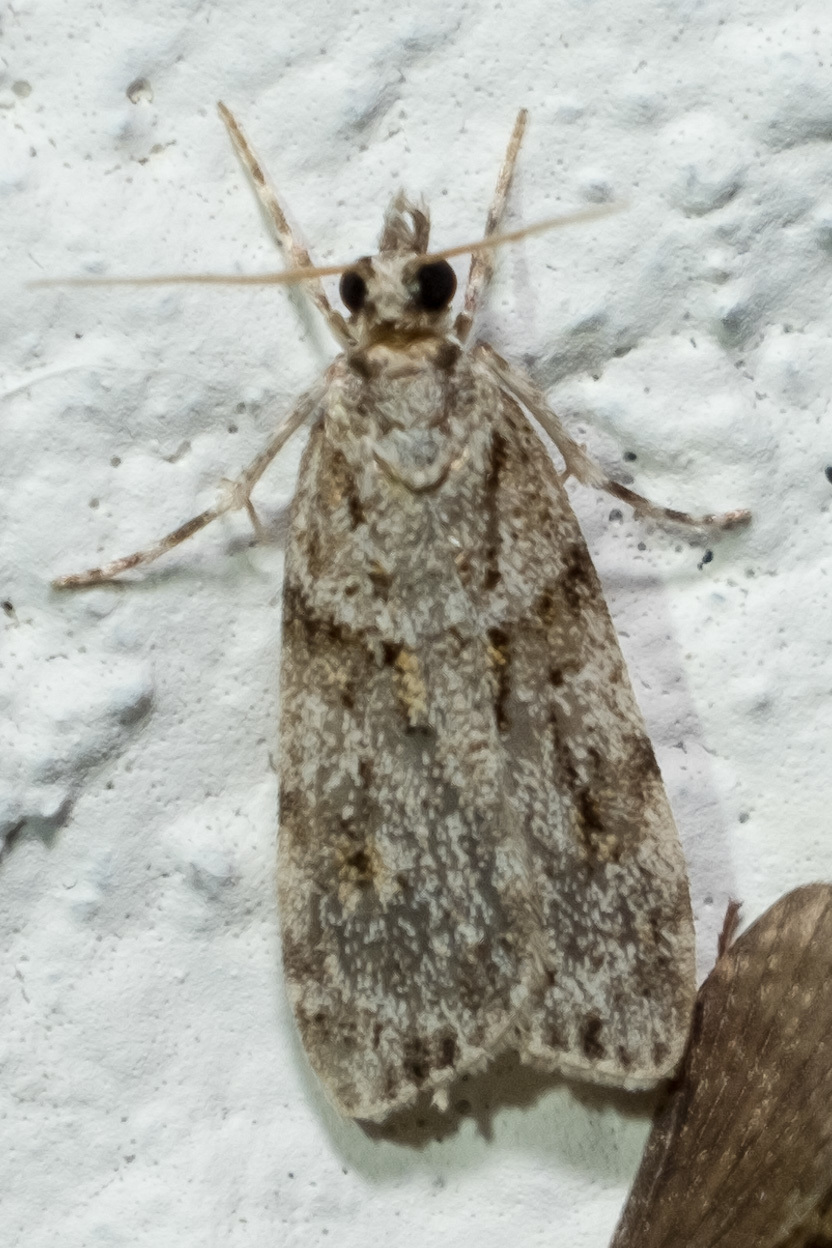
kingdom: Animalia
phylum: Arthropoda
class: Insecta
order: Lepidoptera
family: Crambidae
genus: Scoparia
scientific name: Scoparia biplagialis
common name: Double-striped scoparia moth
